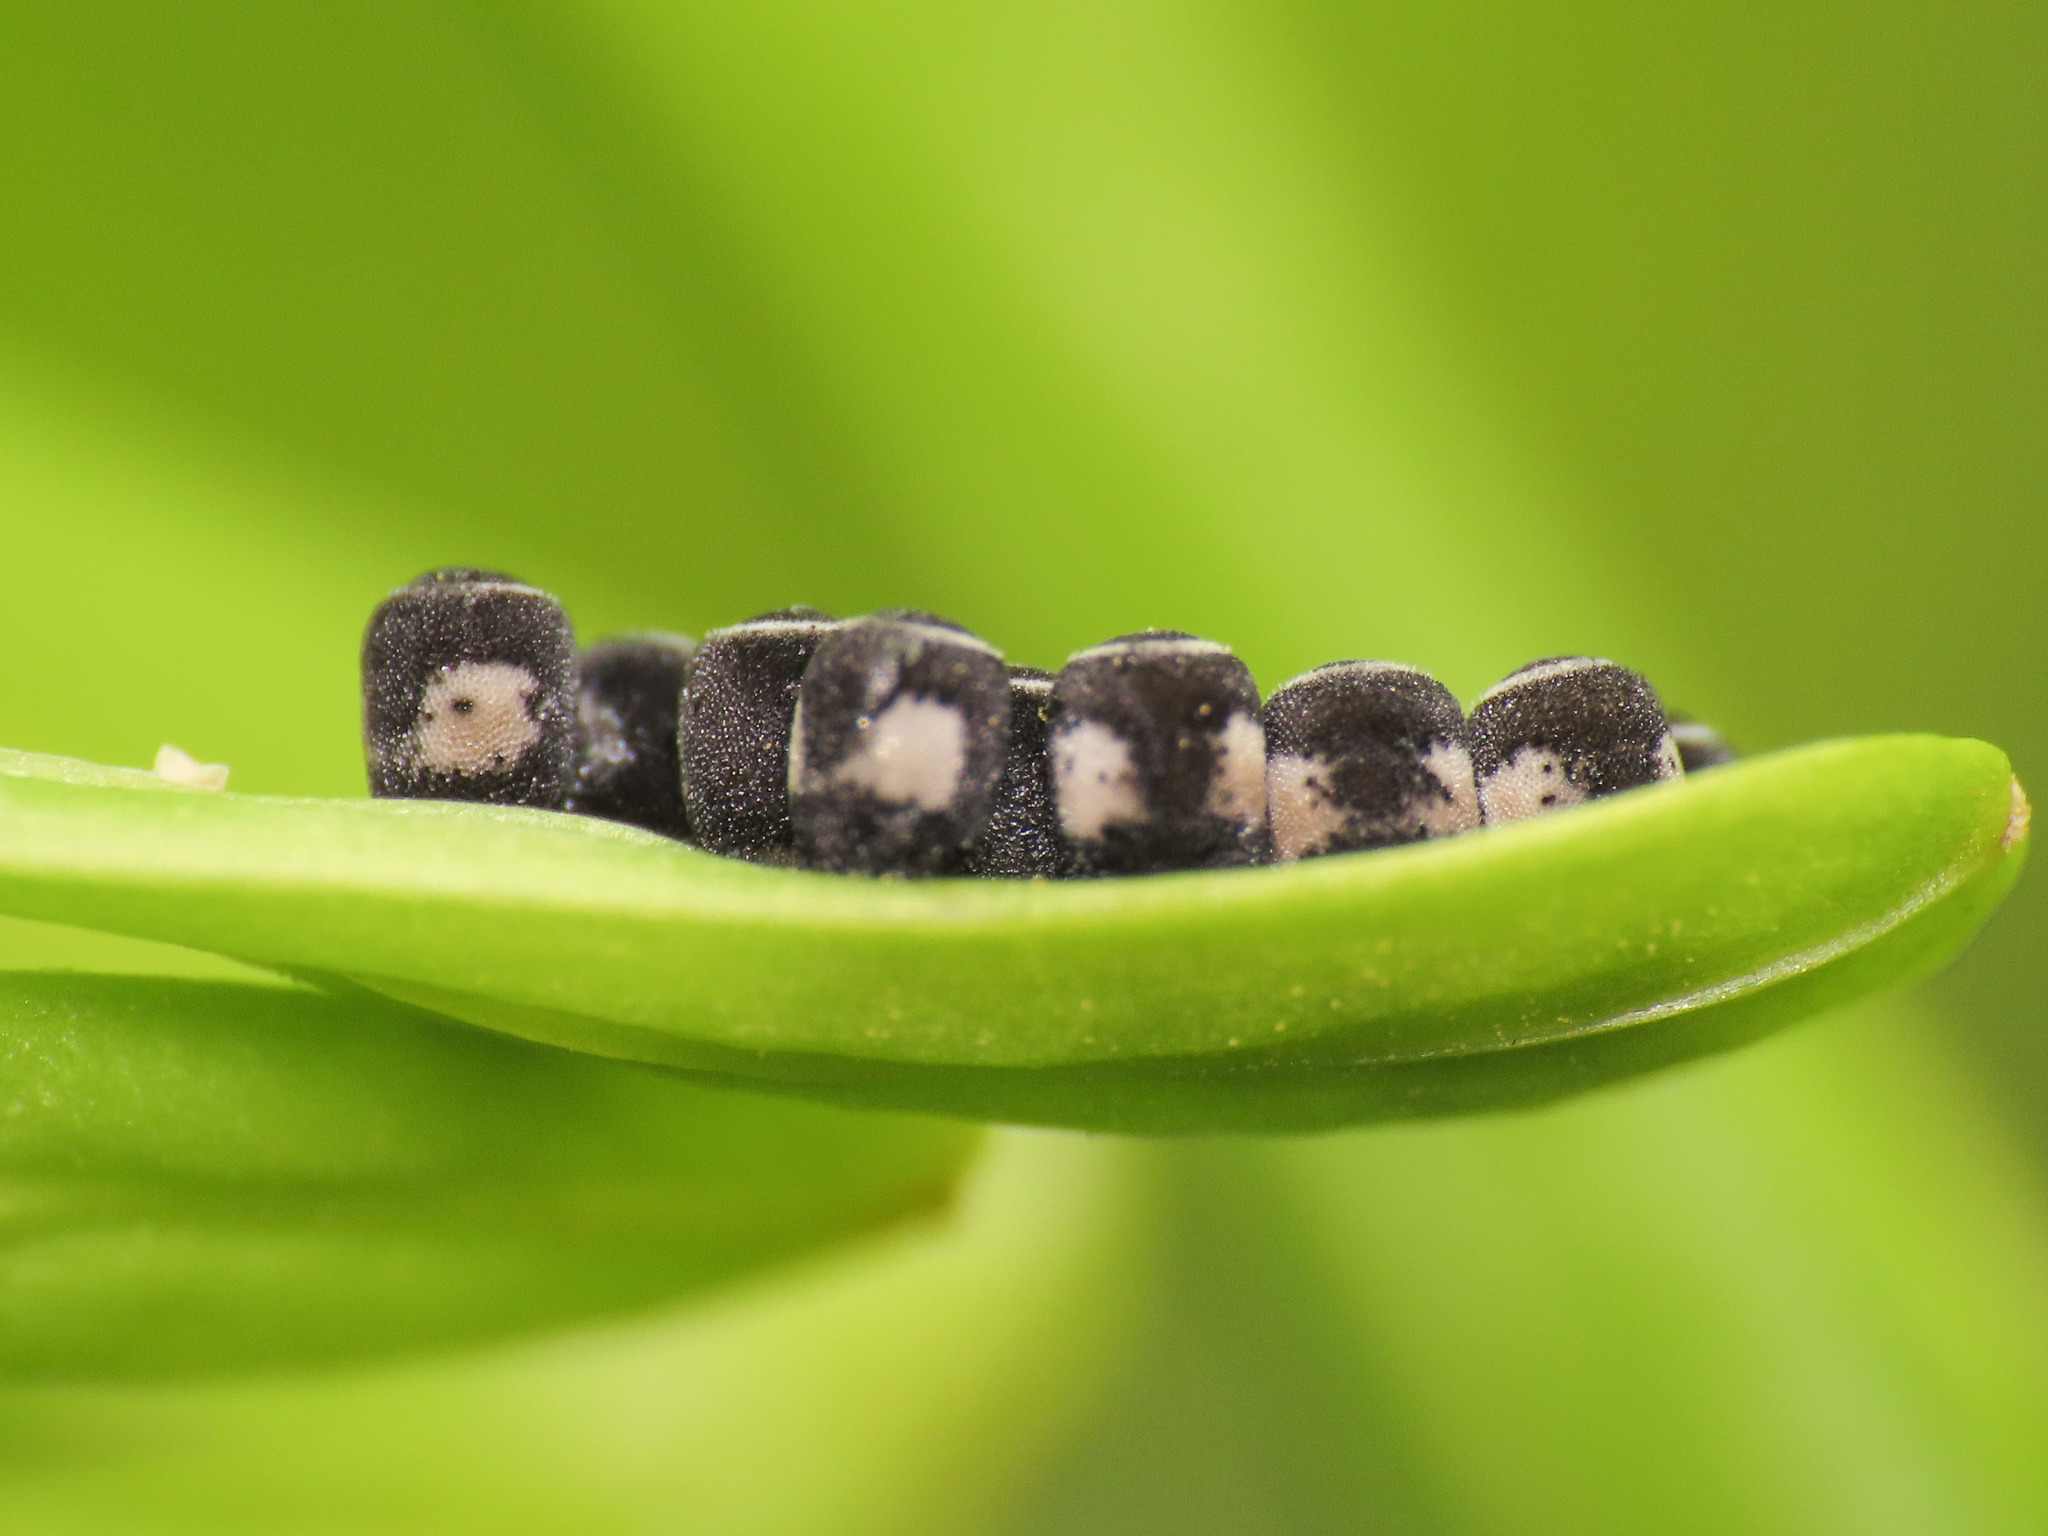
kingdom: Animalia
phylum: Arthropoda
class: Insecta
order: Hemiptera
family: Pentatomidae
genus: Eurydema
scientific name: Eurydema ventralis
